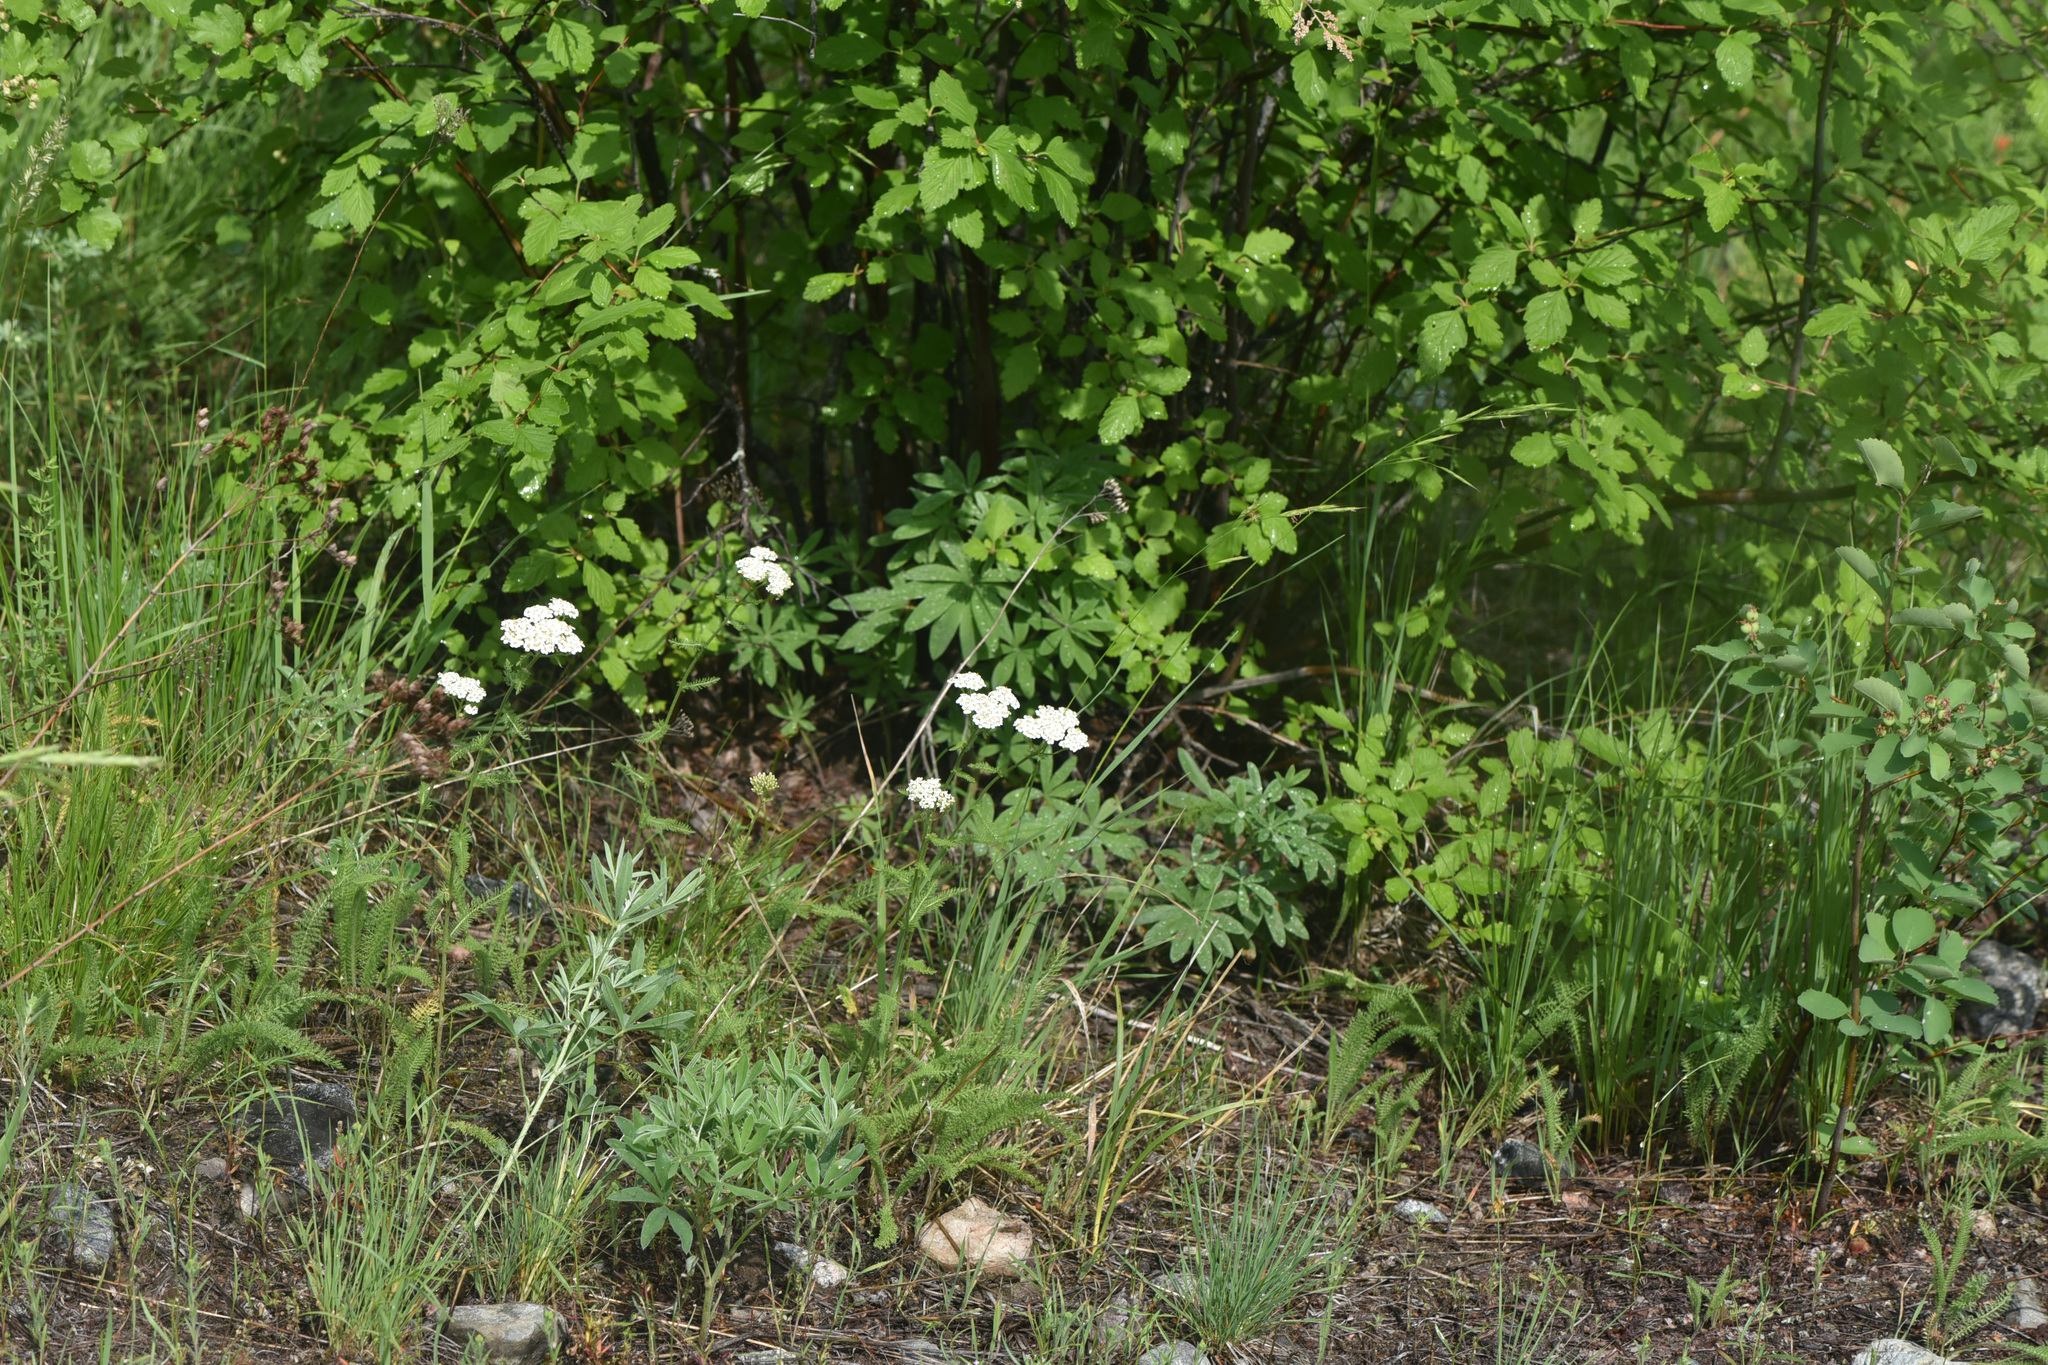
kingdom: Plantae
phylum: Tracheophyta
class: Magnoliopsida
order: Asterales
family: Asteraceae
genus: Achillea
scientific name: Achillea millefolium
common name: Yarrow
